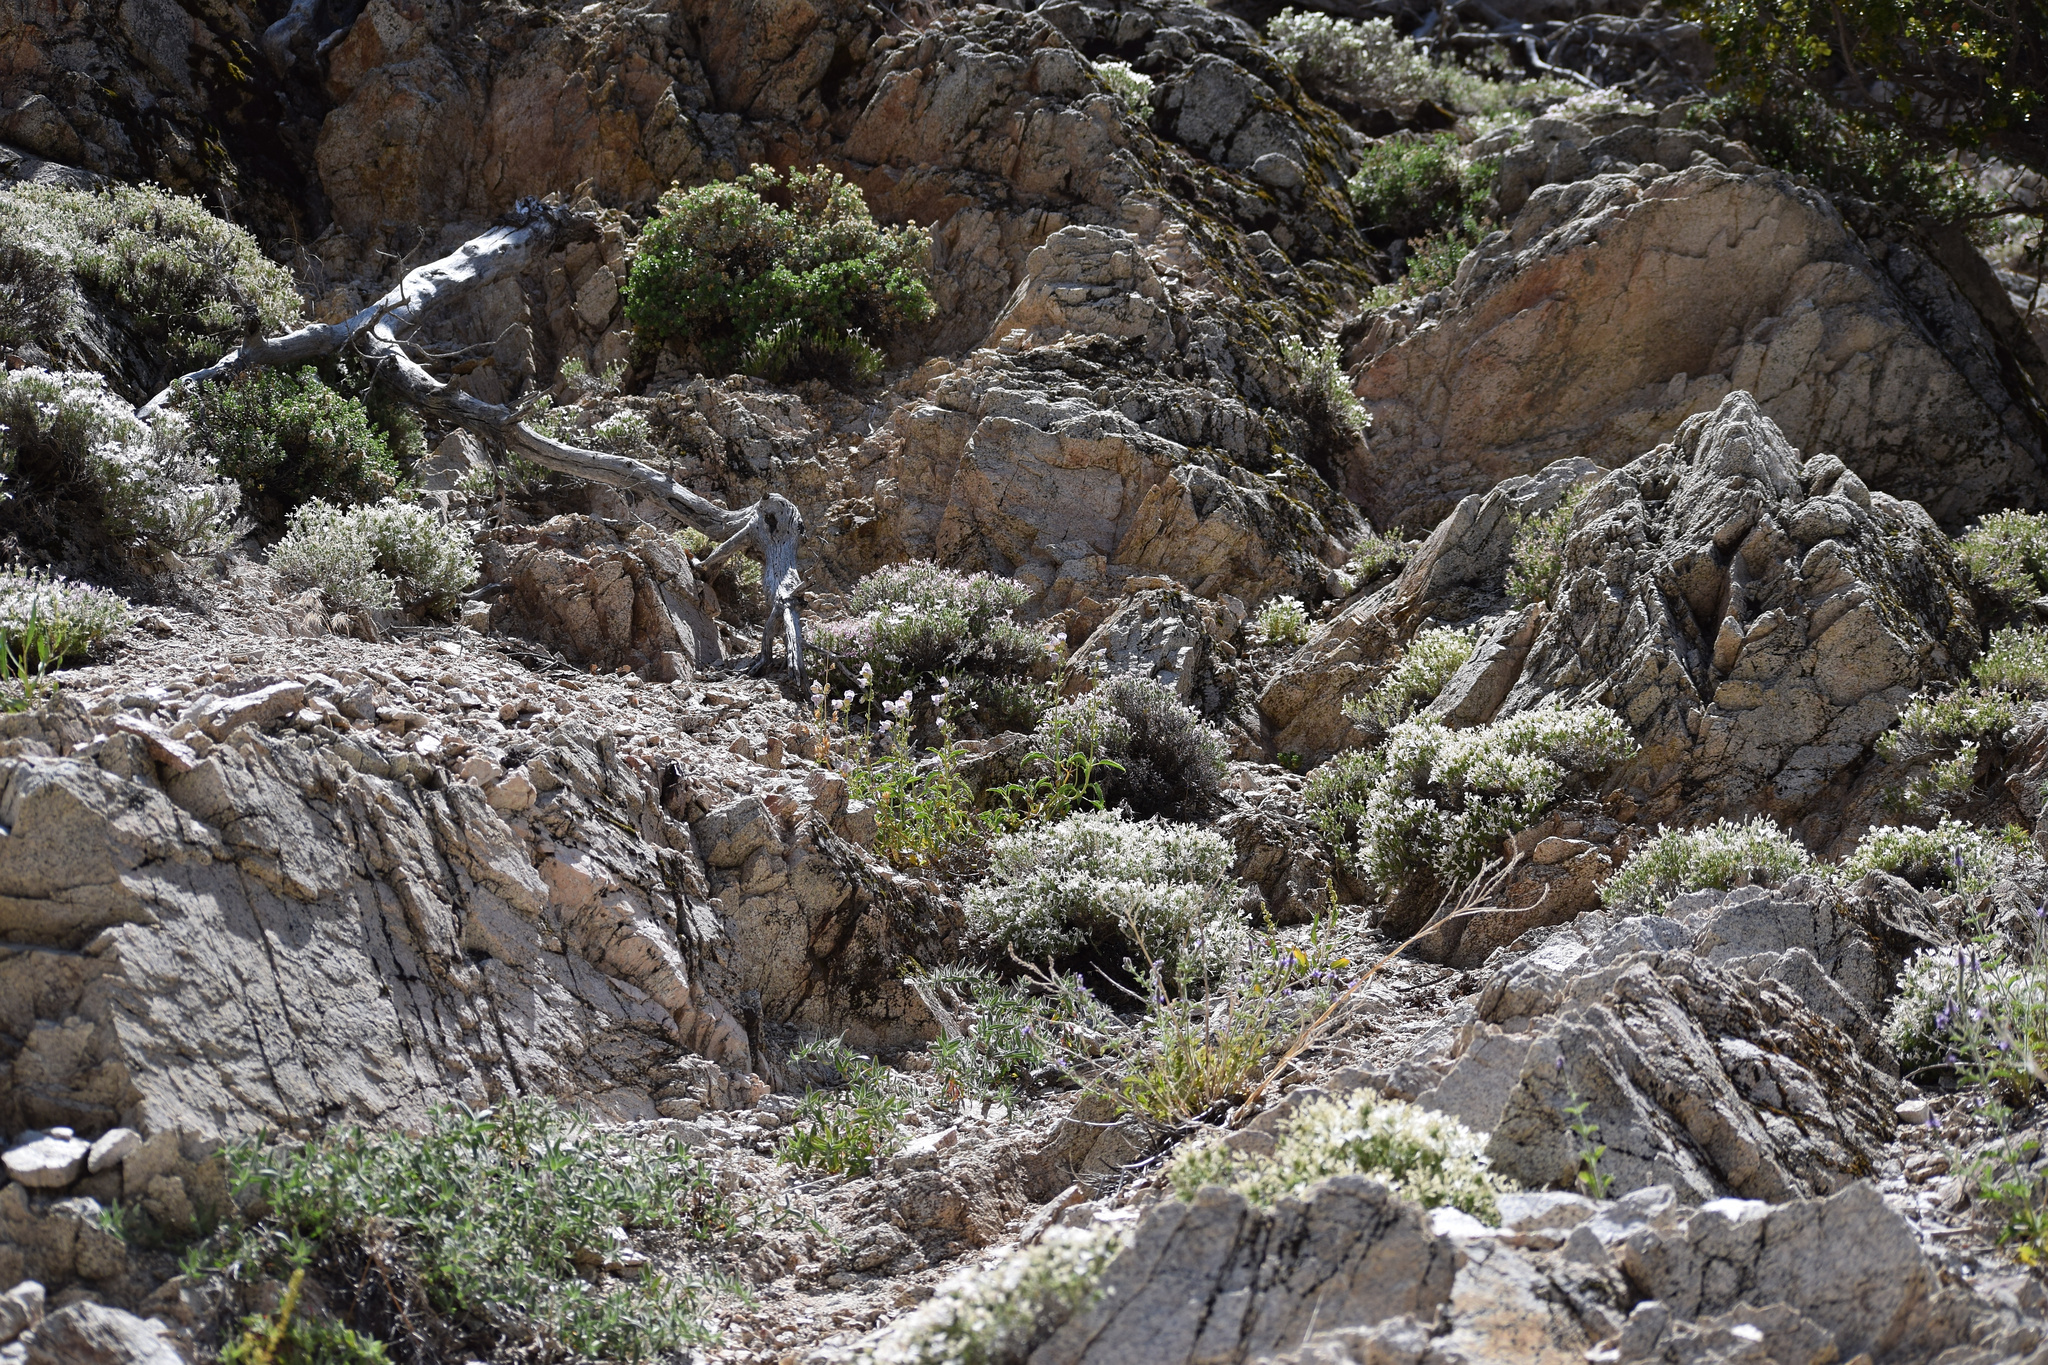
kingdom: Plantae
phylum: Tracheophyta
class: Magnoliopsida
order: Ericales
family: Polemoniaceae
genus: Linanthus
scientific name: Linanthus pungens
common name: Granite prickly phlox
